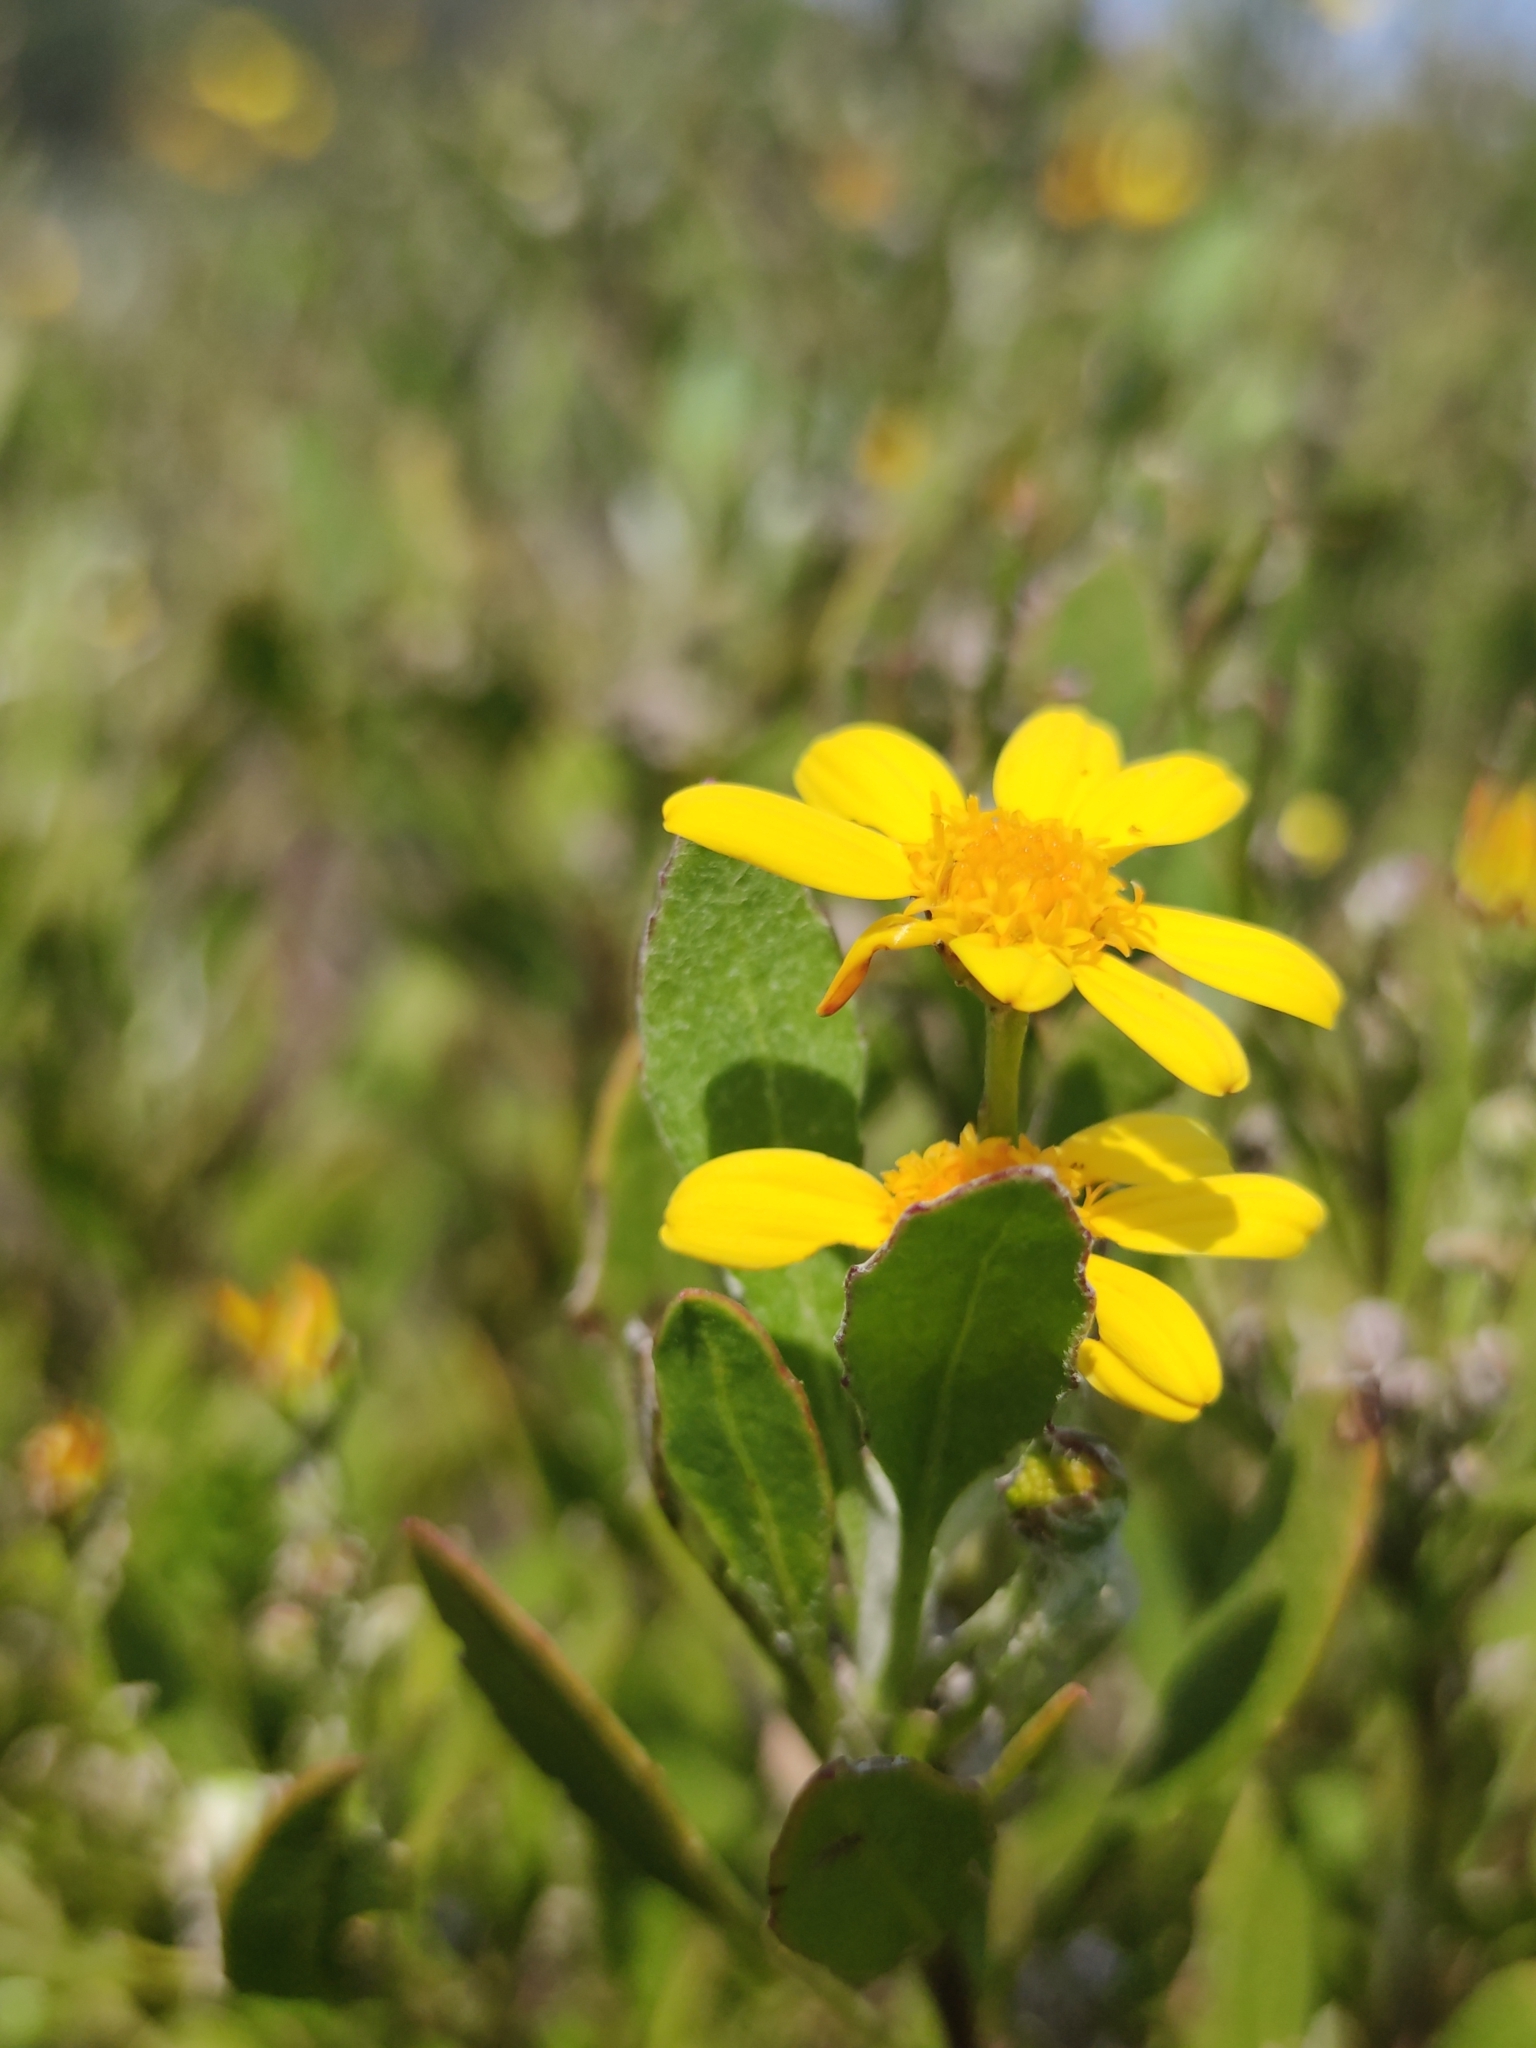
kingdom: Plantae
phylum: Tracheophyta
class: Magnoliopsida
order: Asterales
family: Asteraceae
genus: Osteospermum
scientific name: Osteospermum moniliferum
